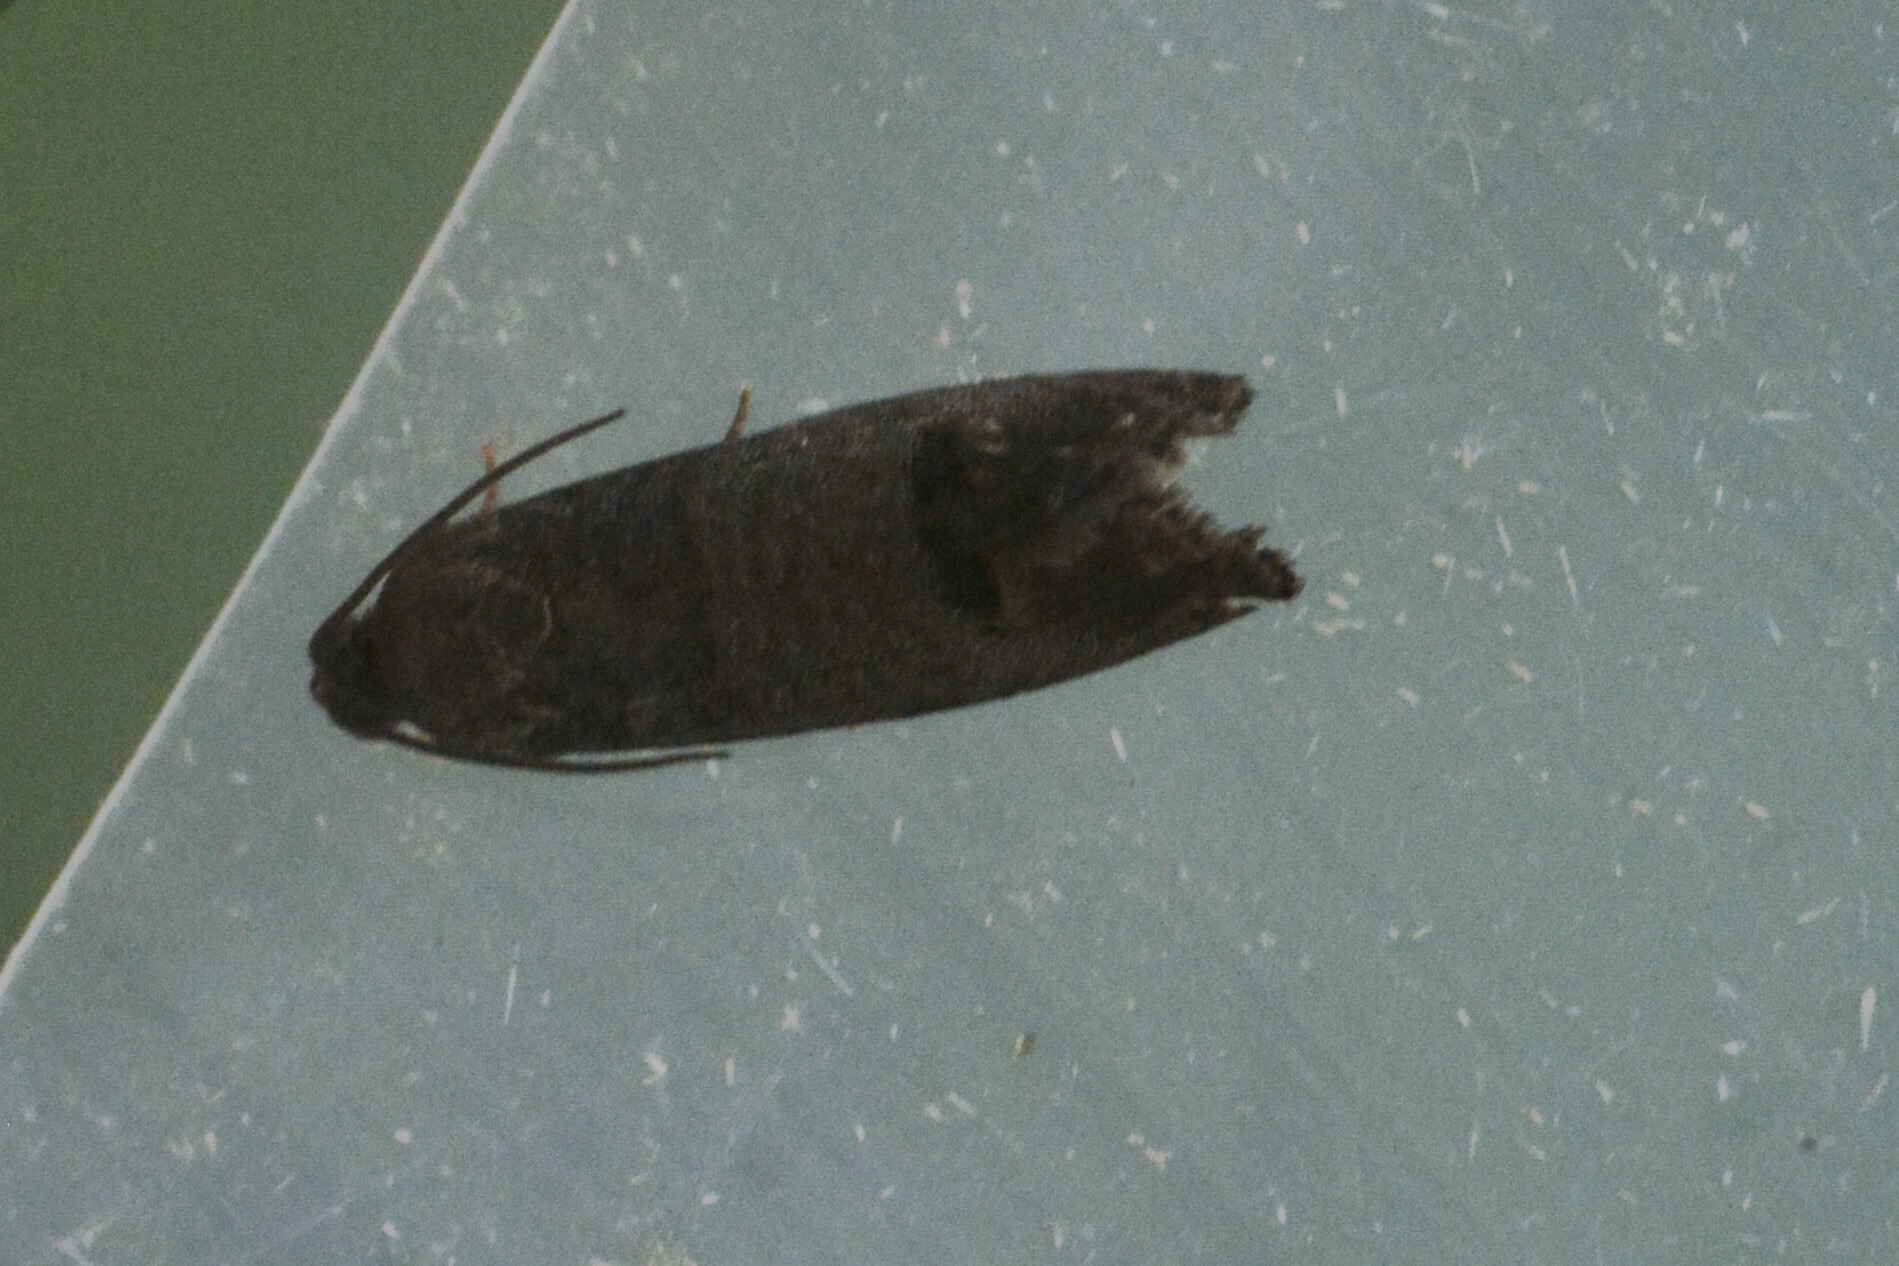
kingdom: Animalia
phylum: Arthropoda
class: Insecta
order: Lepidoptera
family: Tortricidae
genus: Cydia
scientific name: Cydia pomonella
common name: Codling moth
